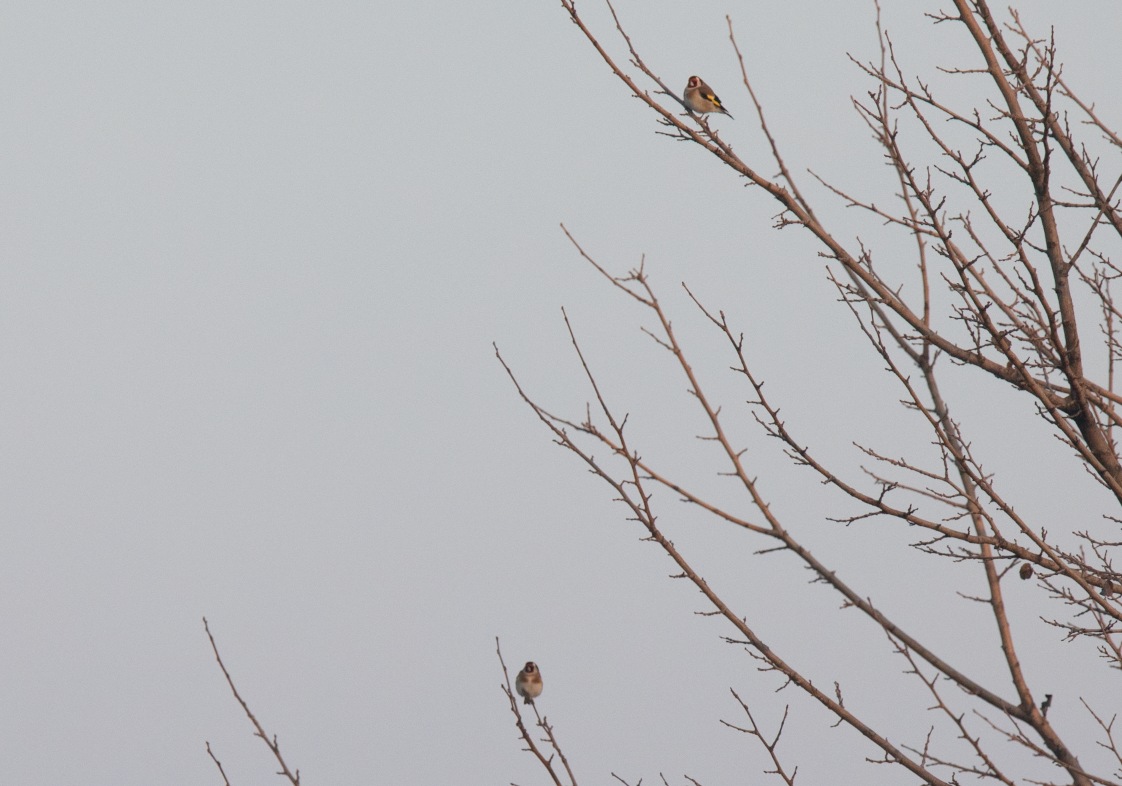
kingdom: Animalia
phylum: Chordata
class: Aves
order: Passeriformes
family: Fringillidae
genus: Carduelis
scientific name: Carduelis carduelis
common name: European goldfinch
